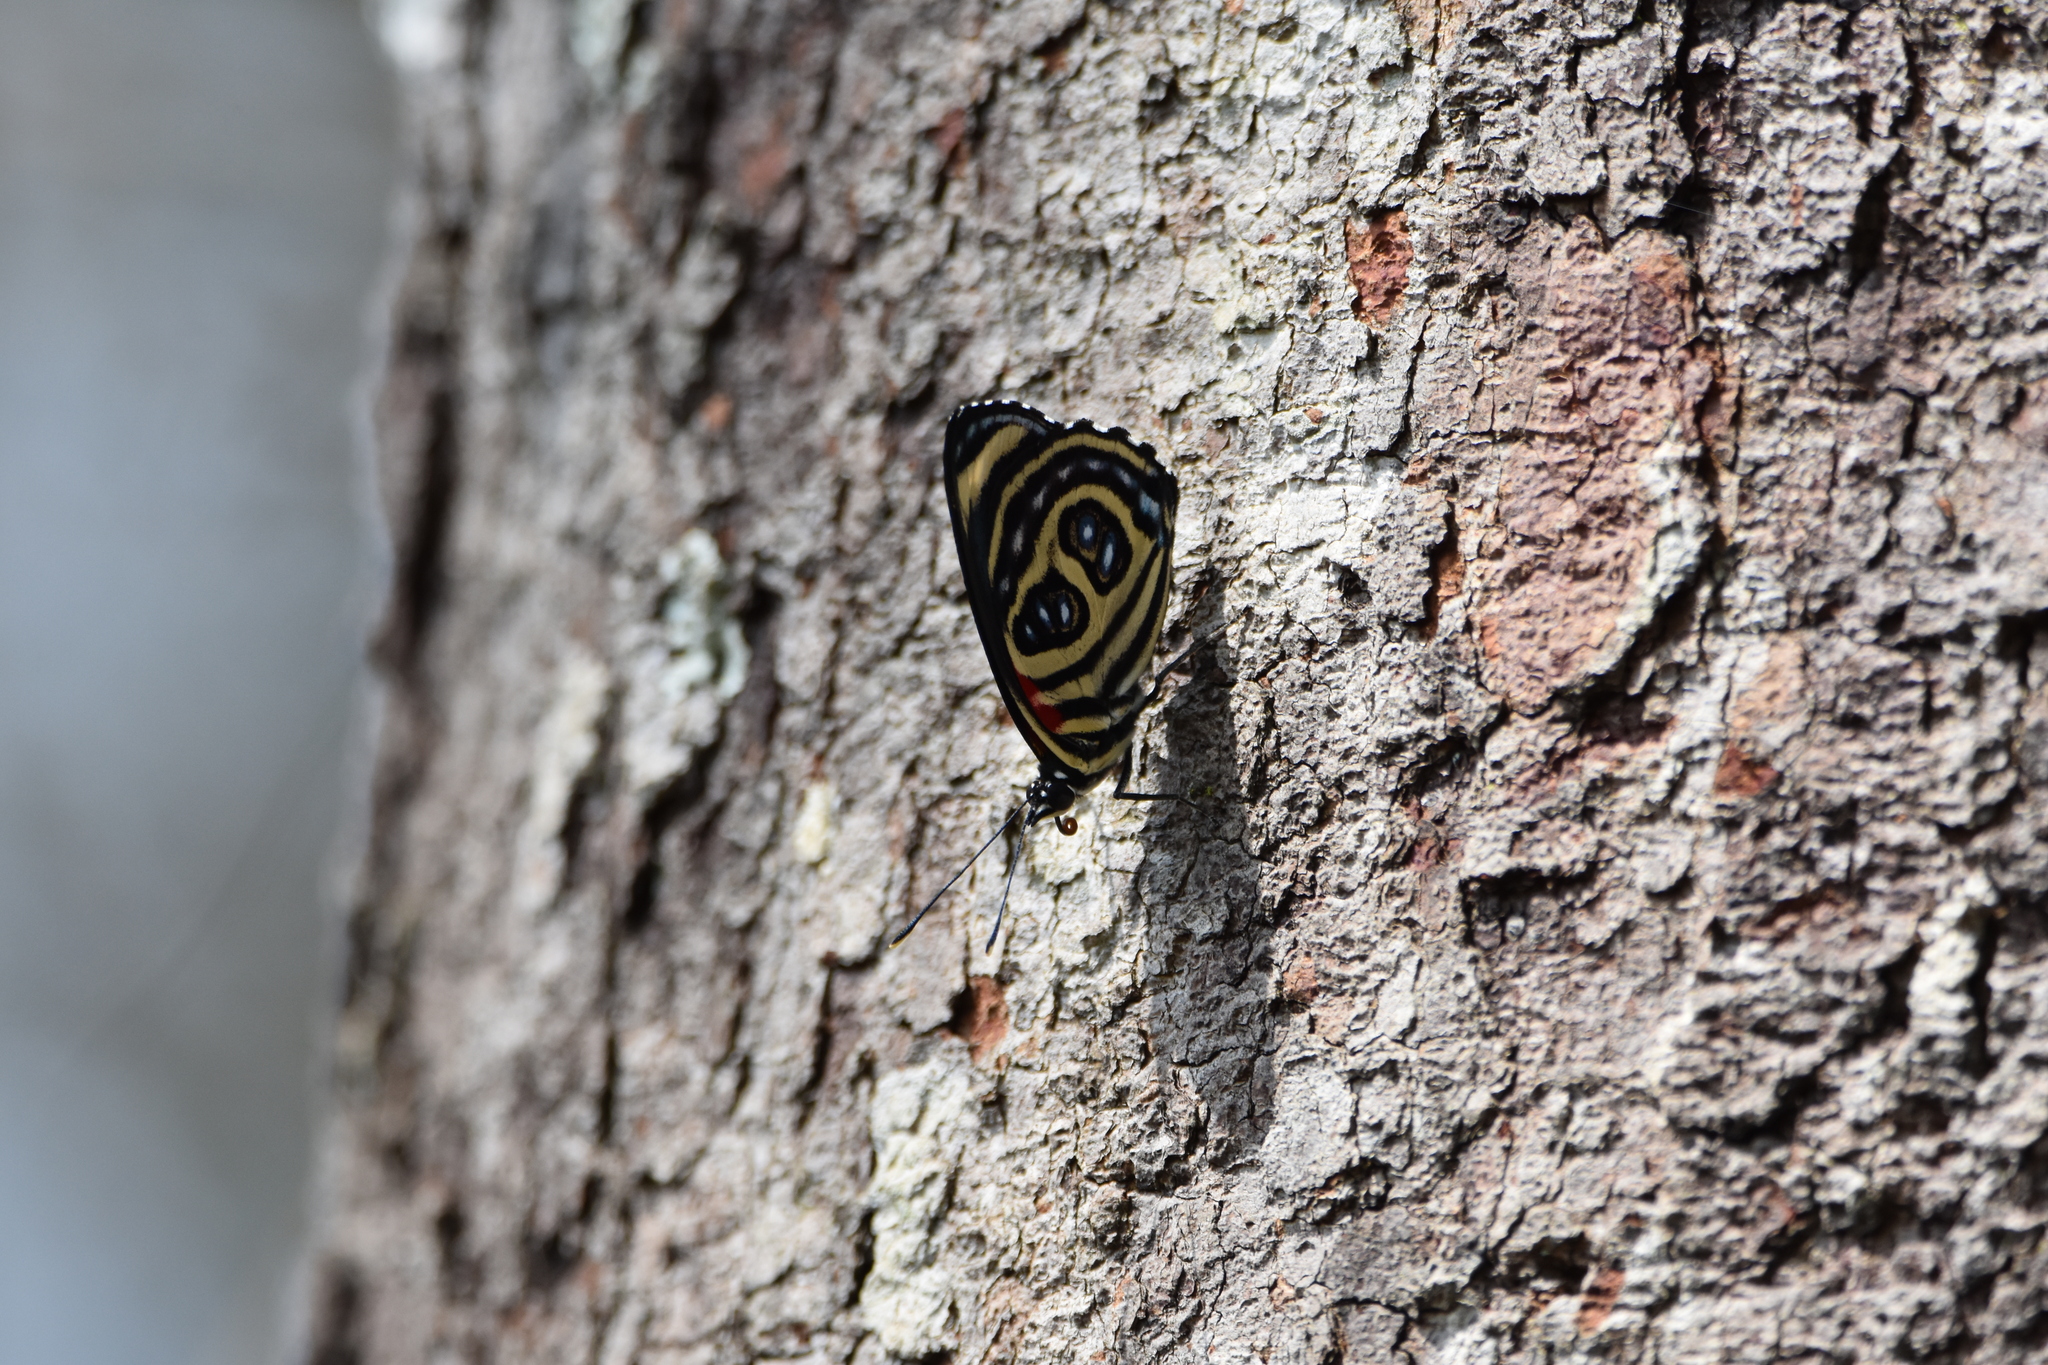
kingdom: Animalia
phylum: Arthropoda
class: Insecta
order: Lepidoptera
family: Nymphalidae
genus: Catagramma
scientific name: Catagramma pygas
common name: Godart's numberwing
